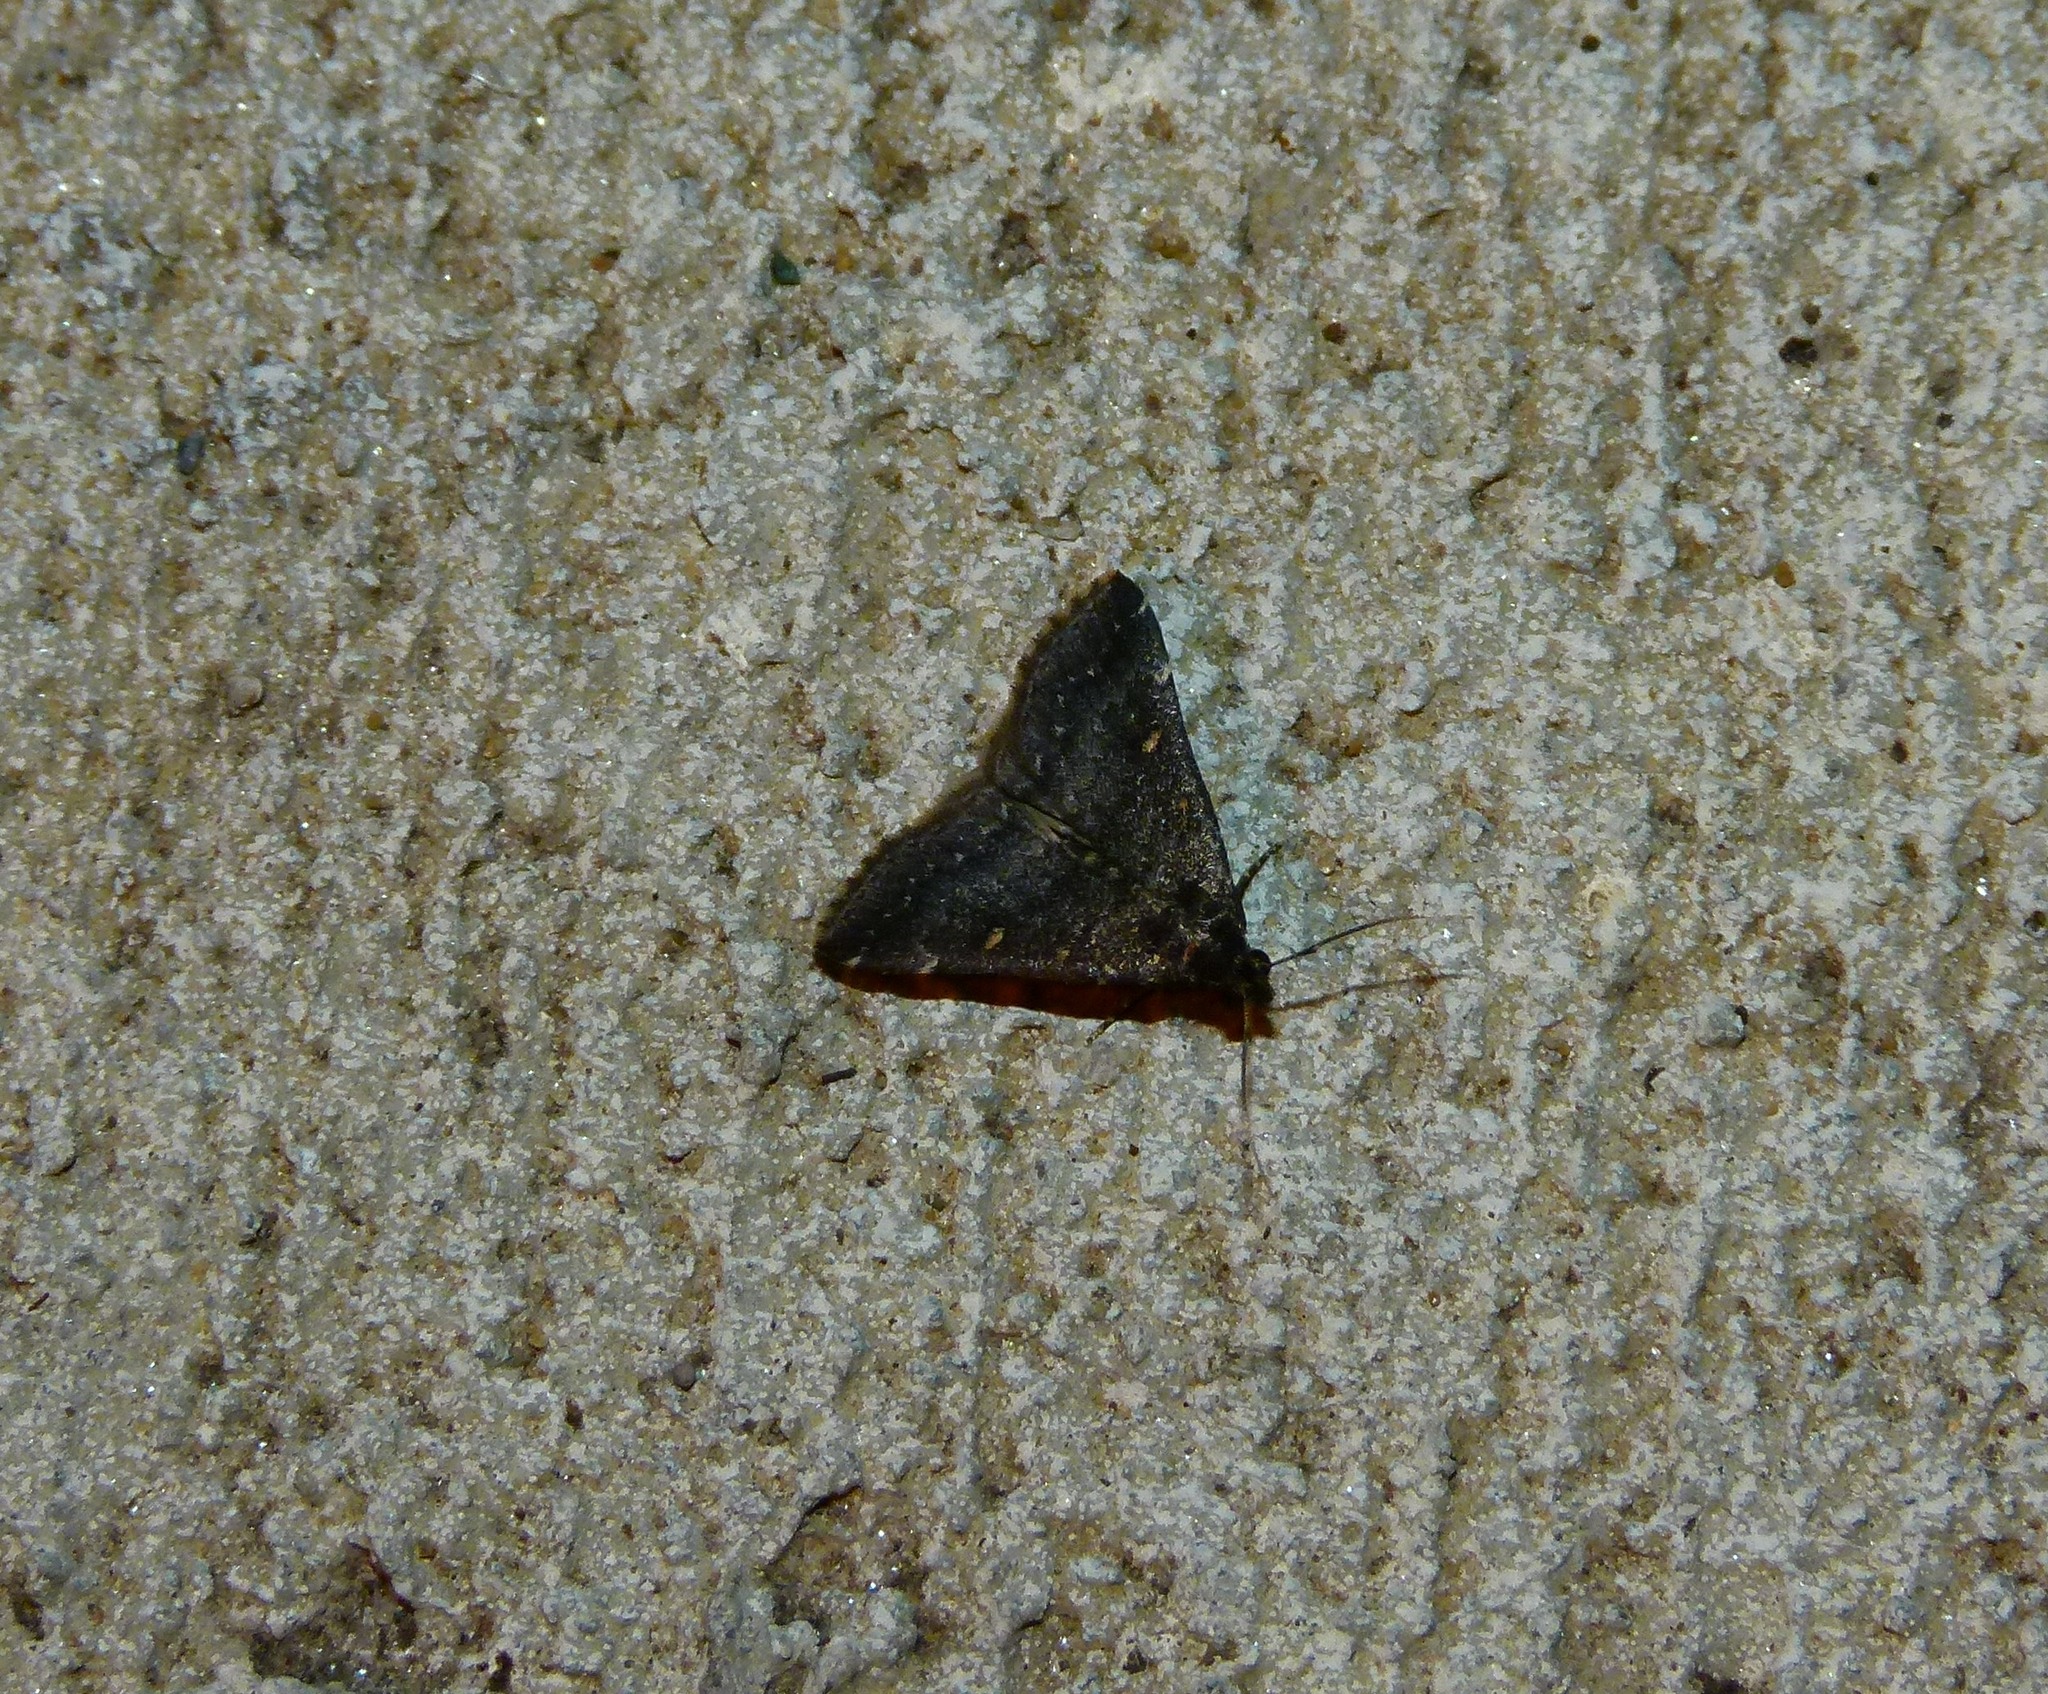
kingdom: Animalia
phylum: Arthropoda
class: Insecta
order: Lepidoptera
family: Erebidae
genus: Tetanolita
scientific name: Tetanolita mynesalis
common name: Smoky tetanolita moth
